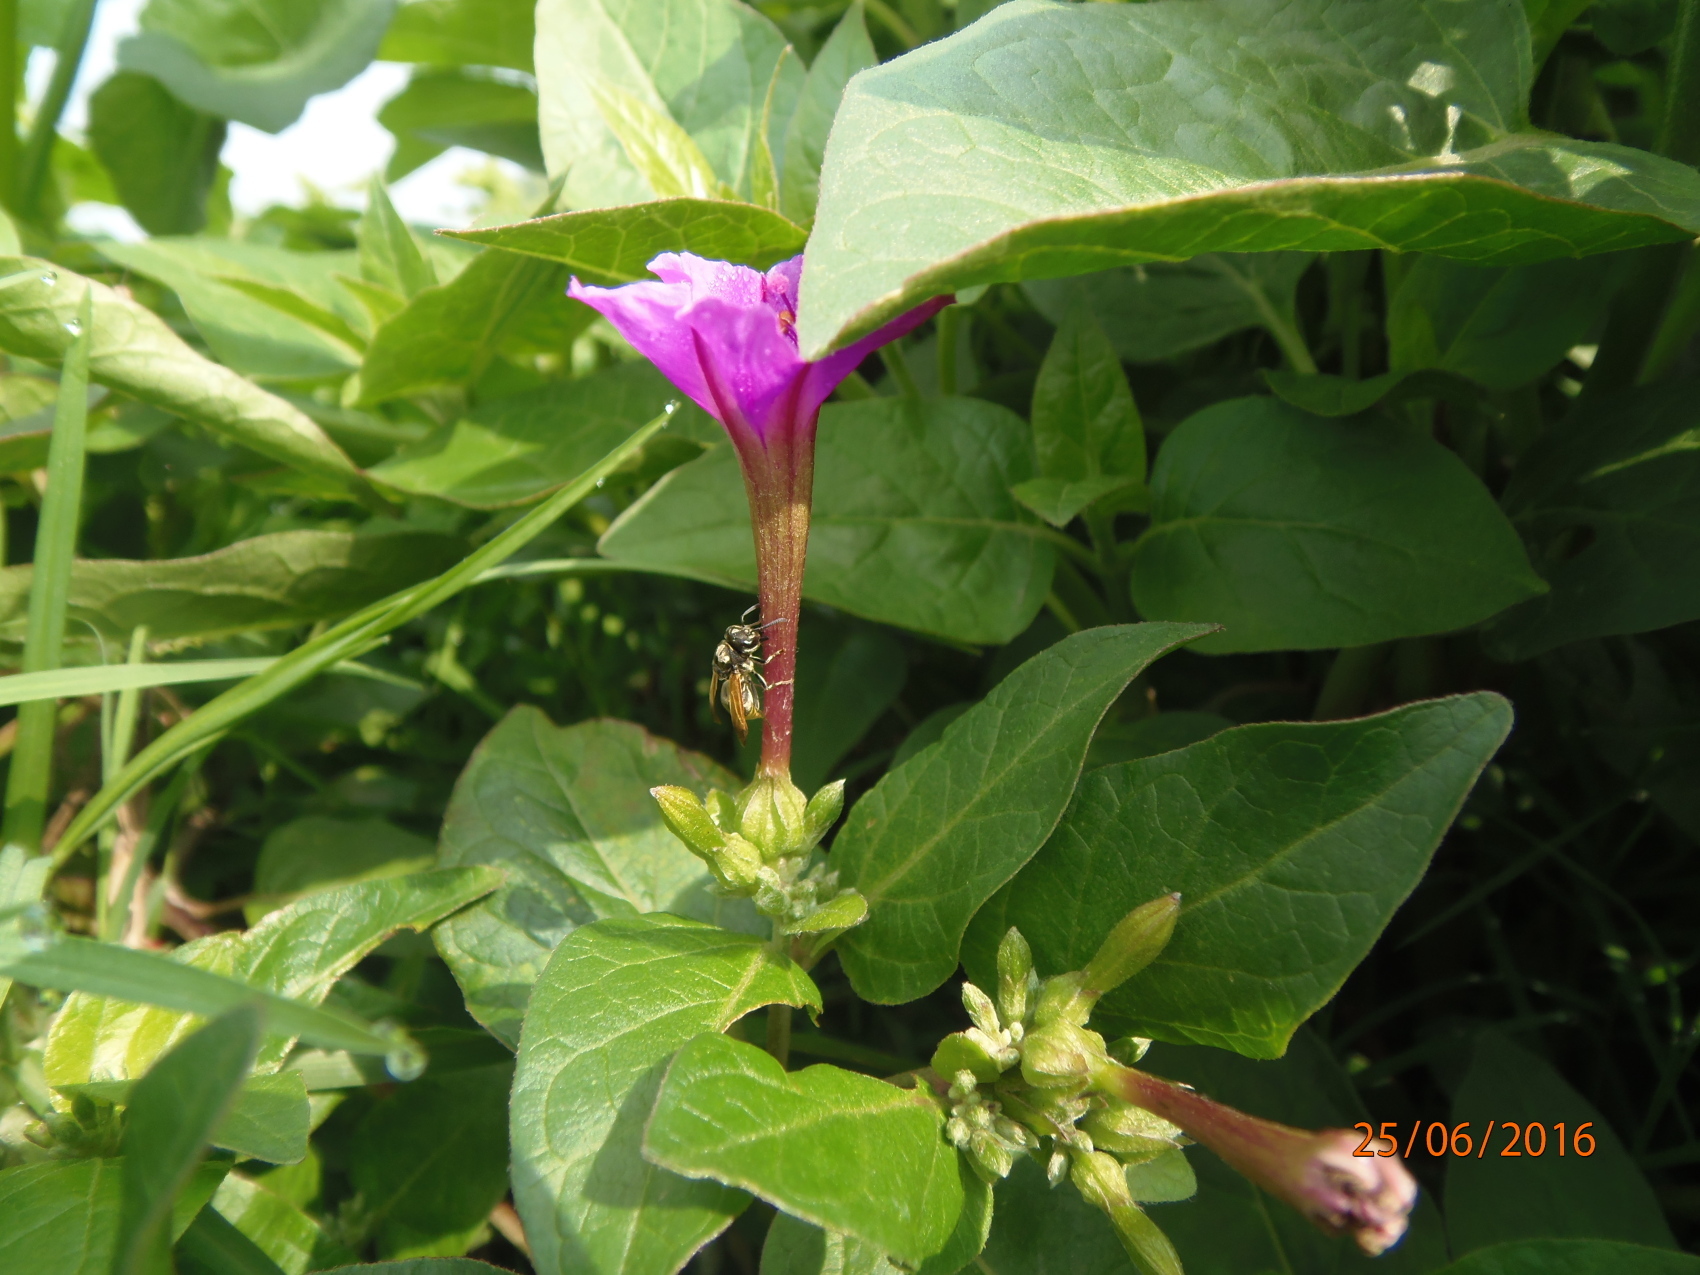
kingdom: Animalia
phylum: Arthropoda
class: Insecta
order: Hymenoptera
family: Vespidae
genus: Brachygastra
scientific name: Brachygastra mellifica
